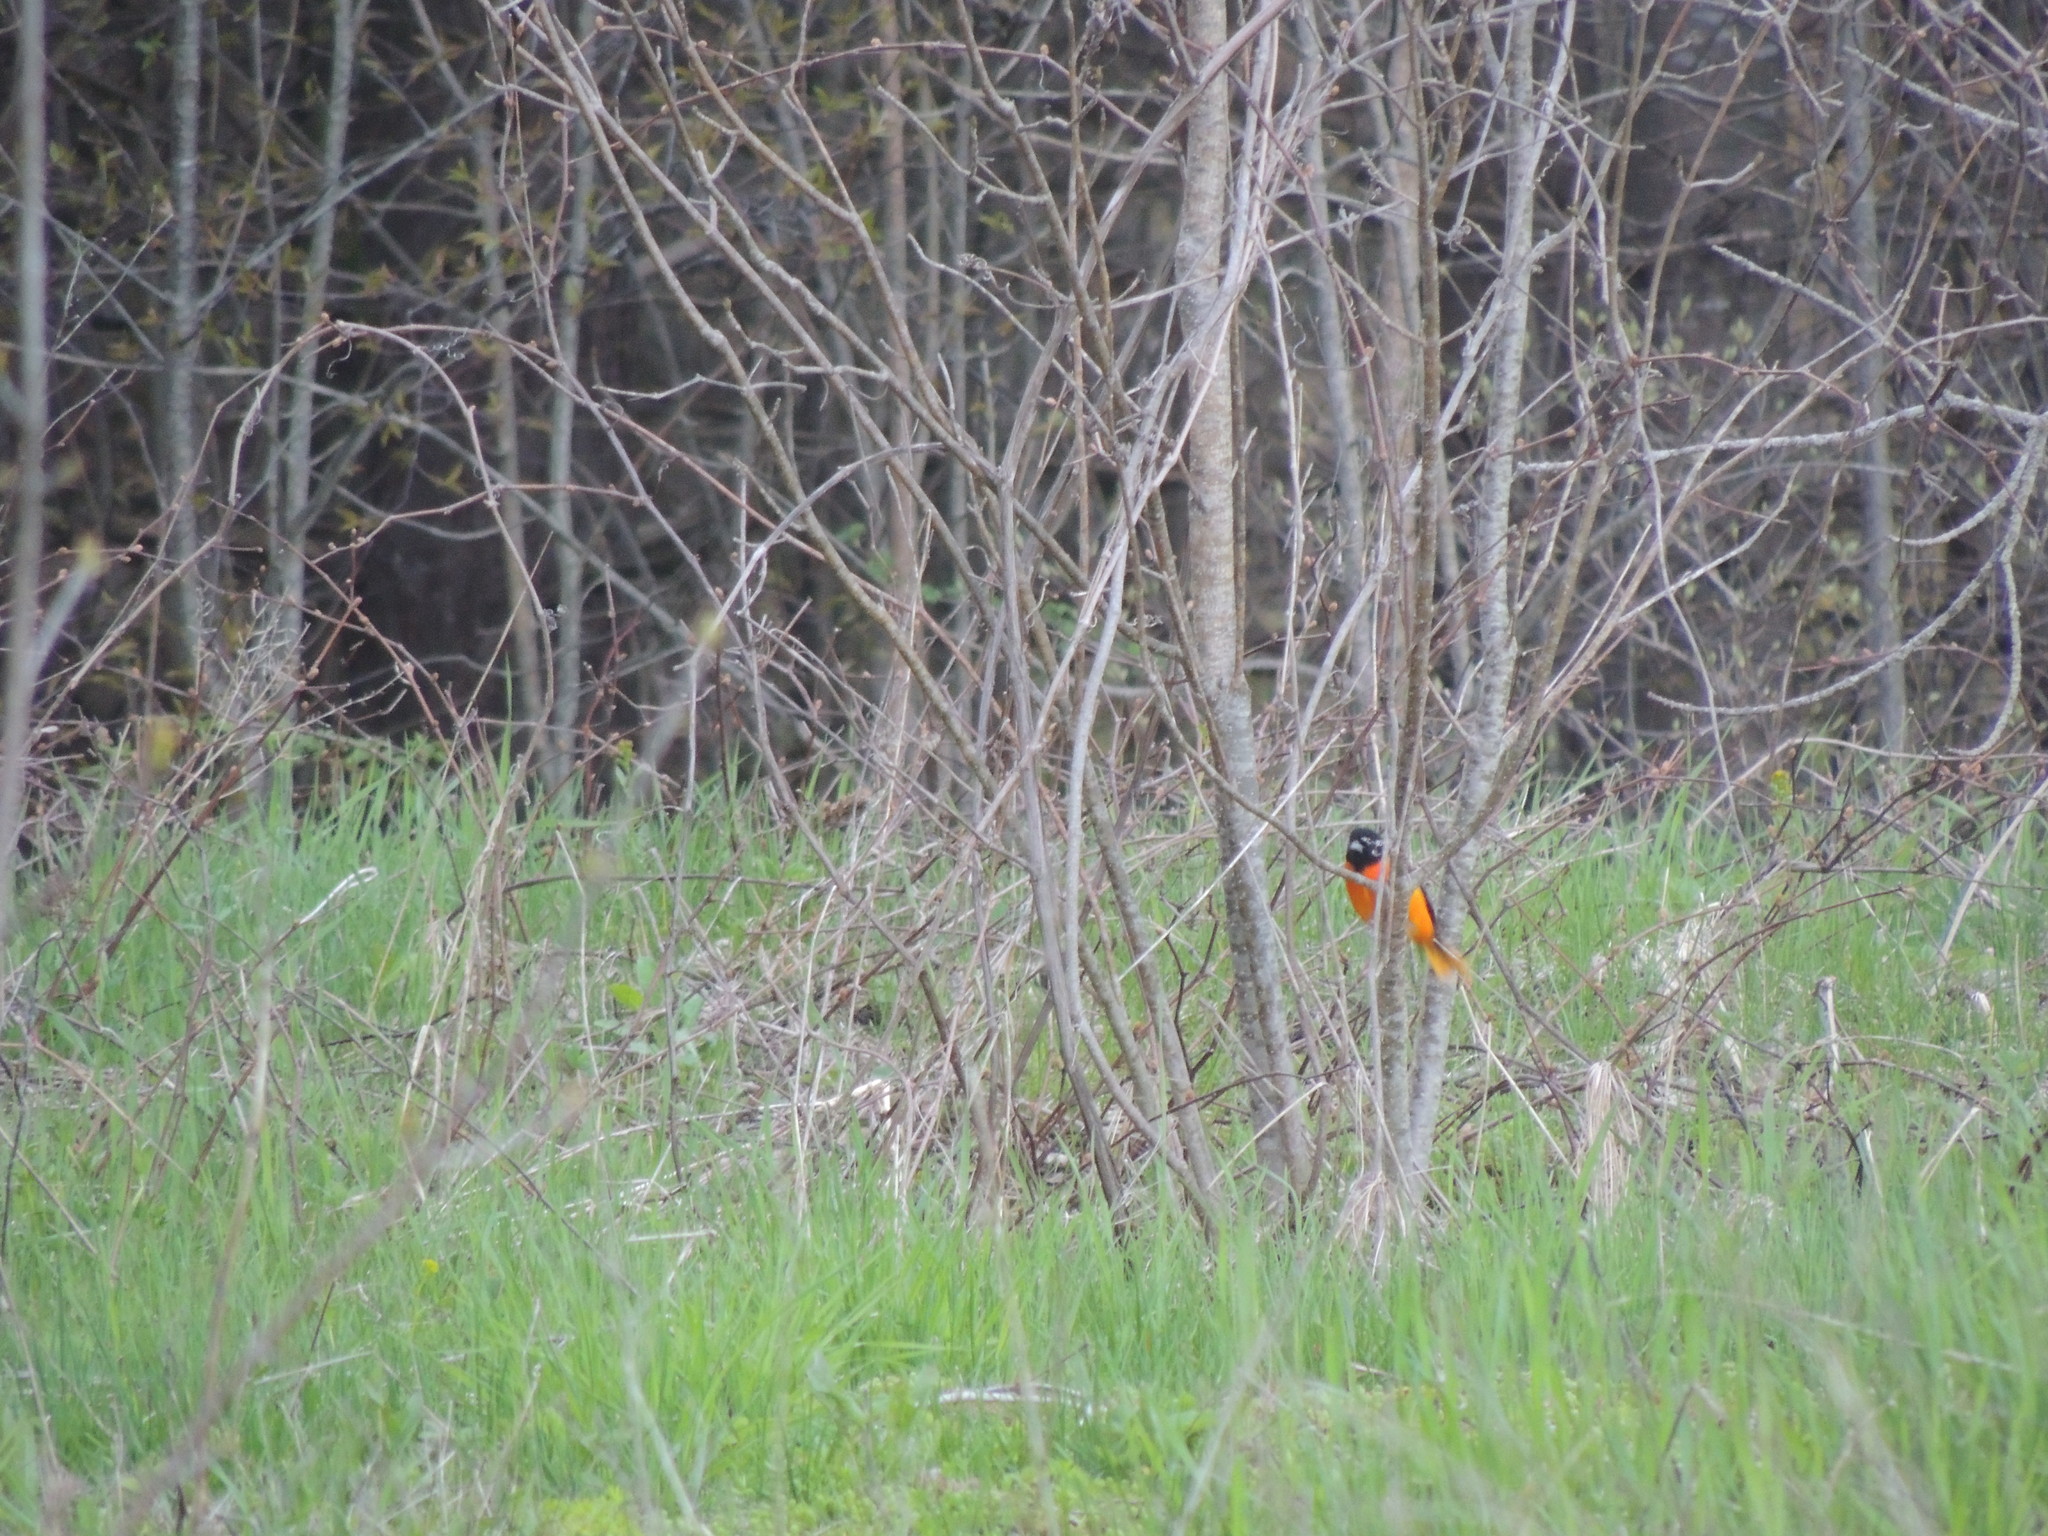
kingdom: Animalia
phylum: Chordata
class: Aves
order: Passeriformes
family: Icteridae
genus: Icterus
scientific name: Icterus galbula
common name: Baltimore oriole
